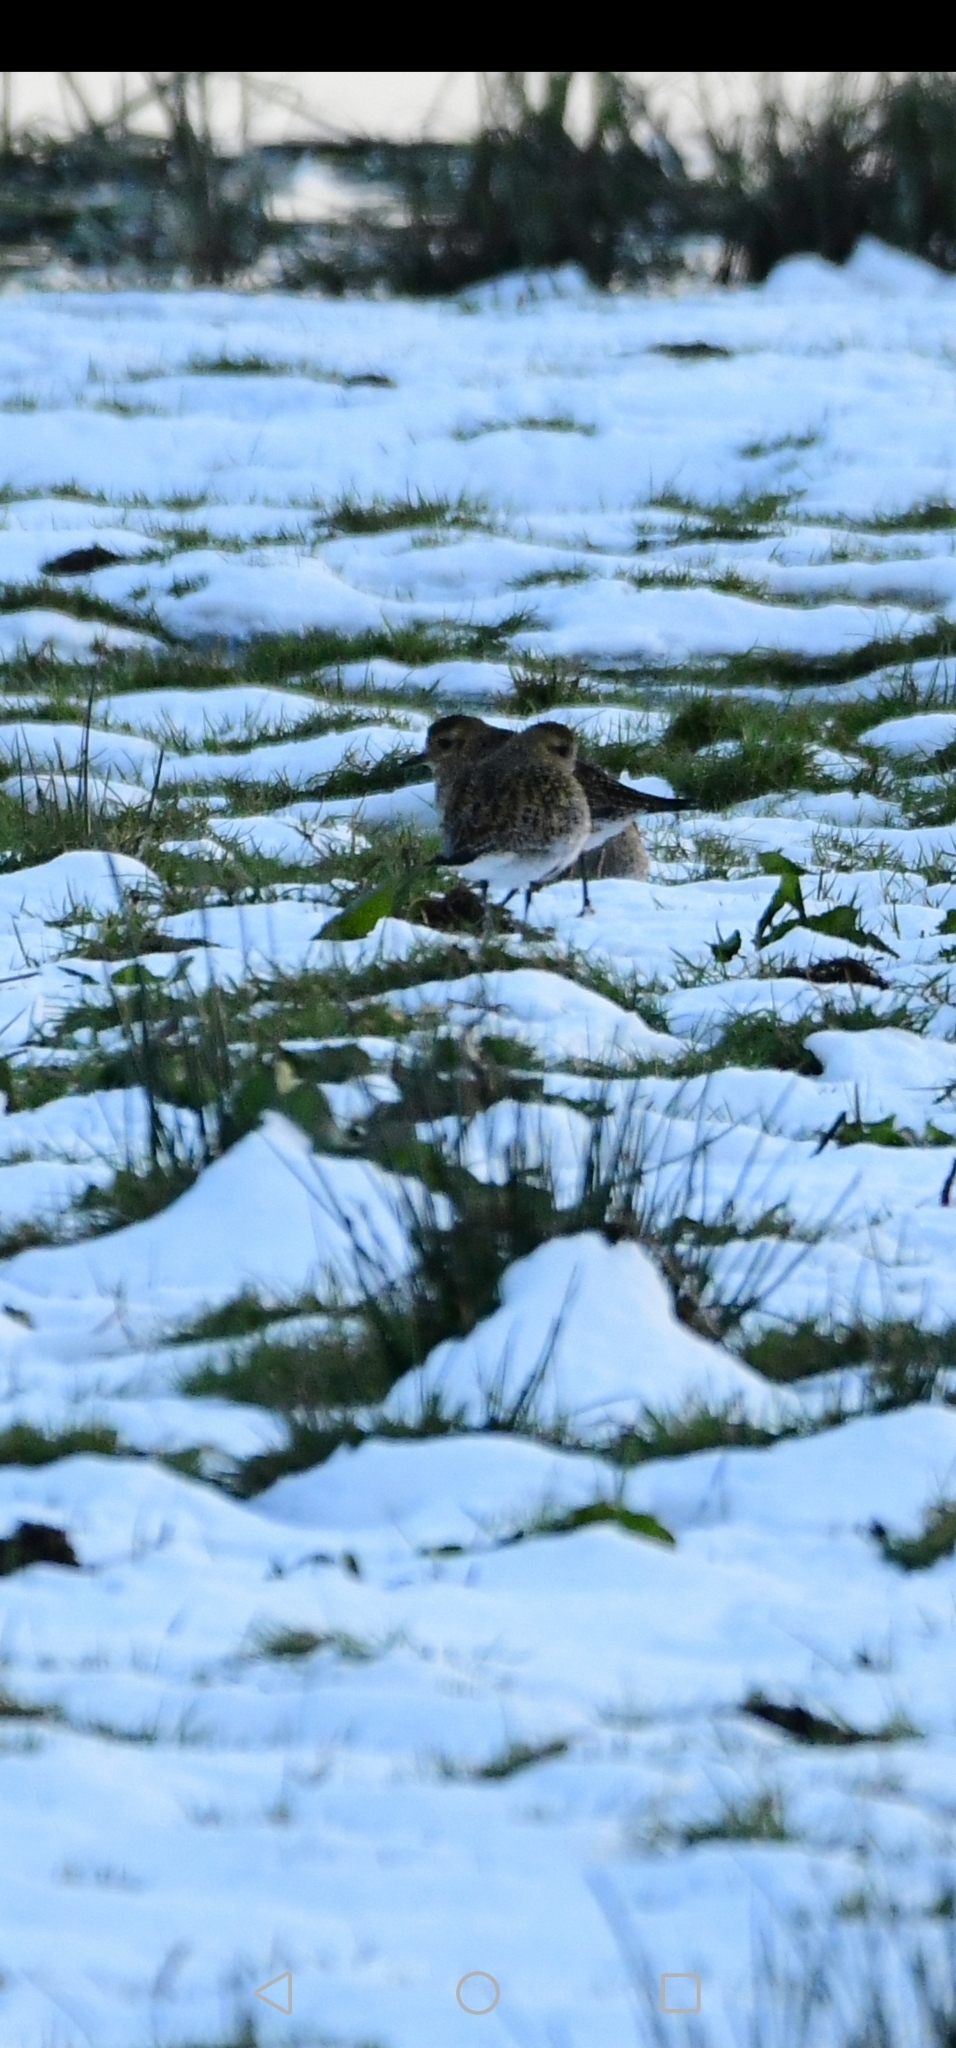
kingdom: Animalia
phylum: Chordata
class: Aves
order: Charadriiformes
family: Charadriidae
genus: Pluvialis
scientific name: Pluvialis apricaria
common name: European golden plover
